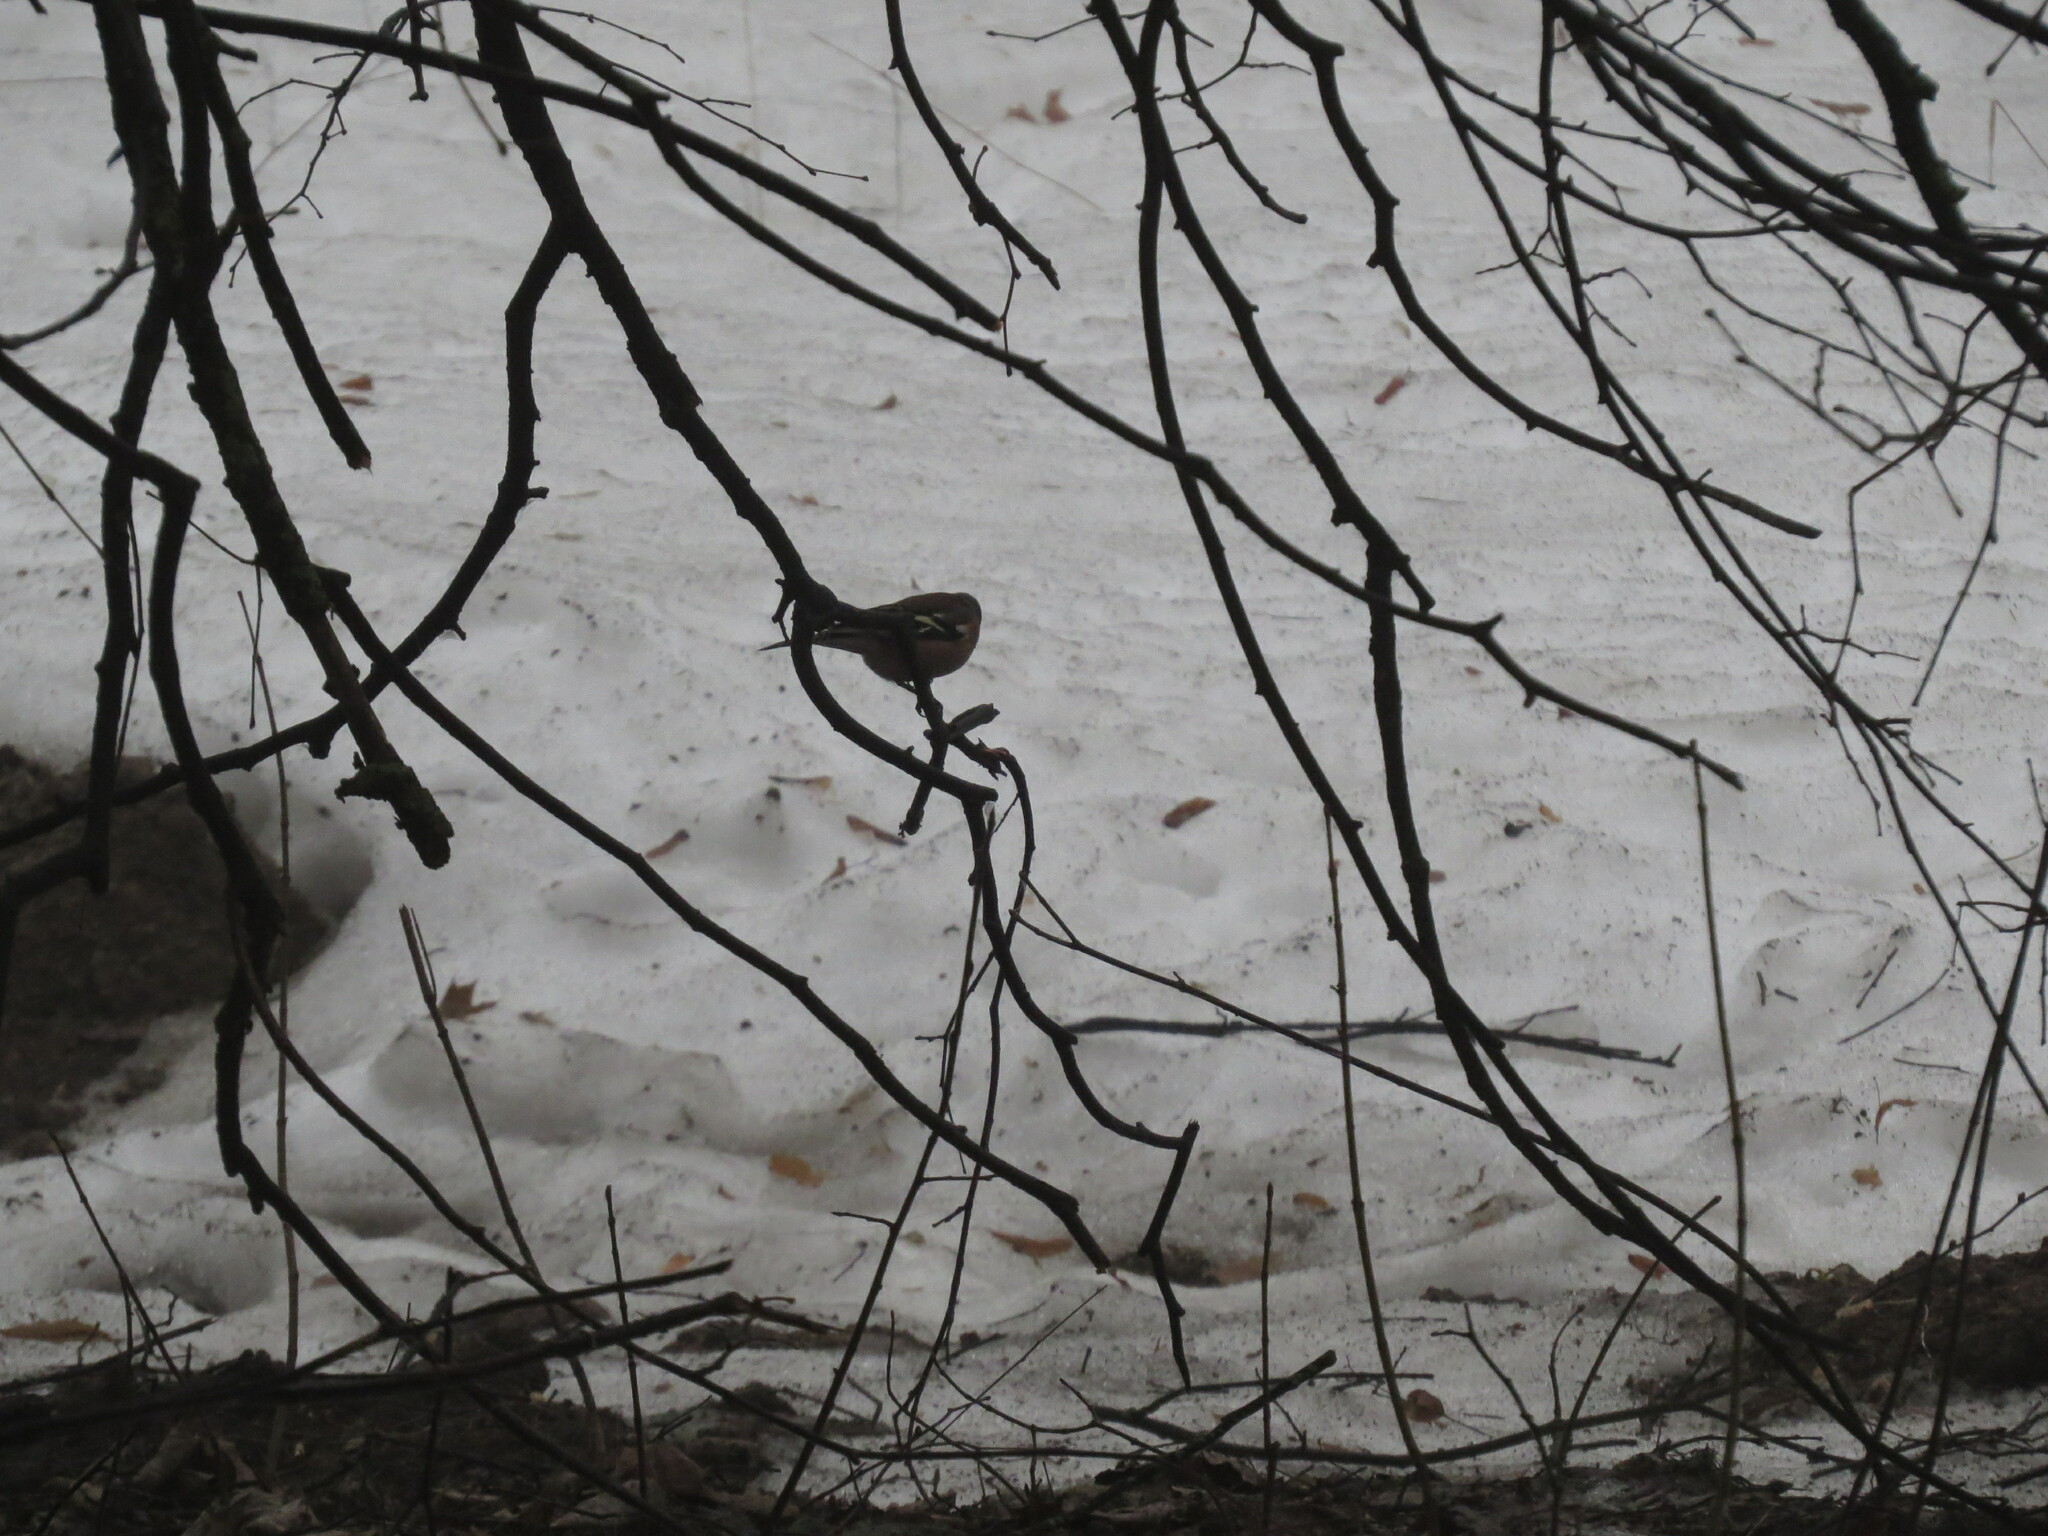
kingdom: Animalia
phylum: Chordata
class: Aves
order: Passeriformes
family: Fringillidae
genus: Fringilla
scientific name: Fringilla coelebs
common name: Common chaffinch
